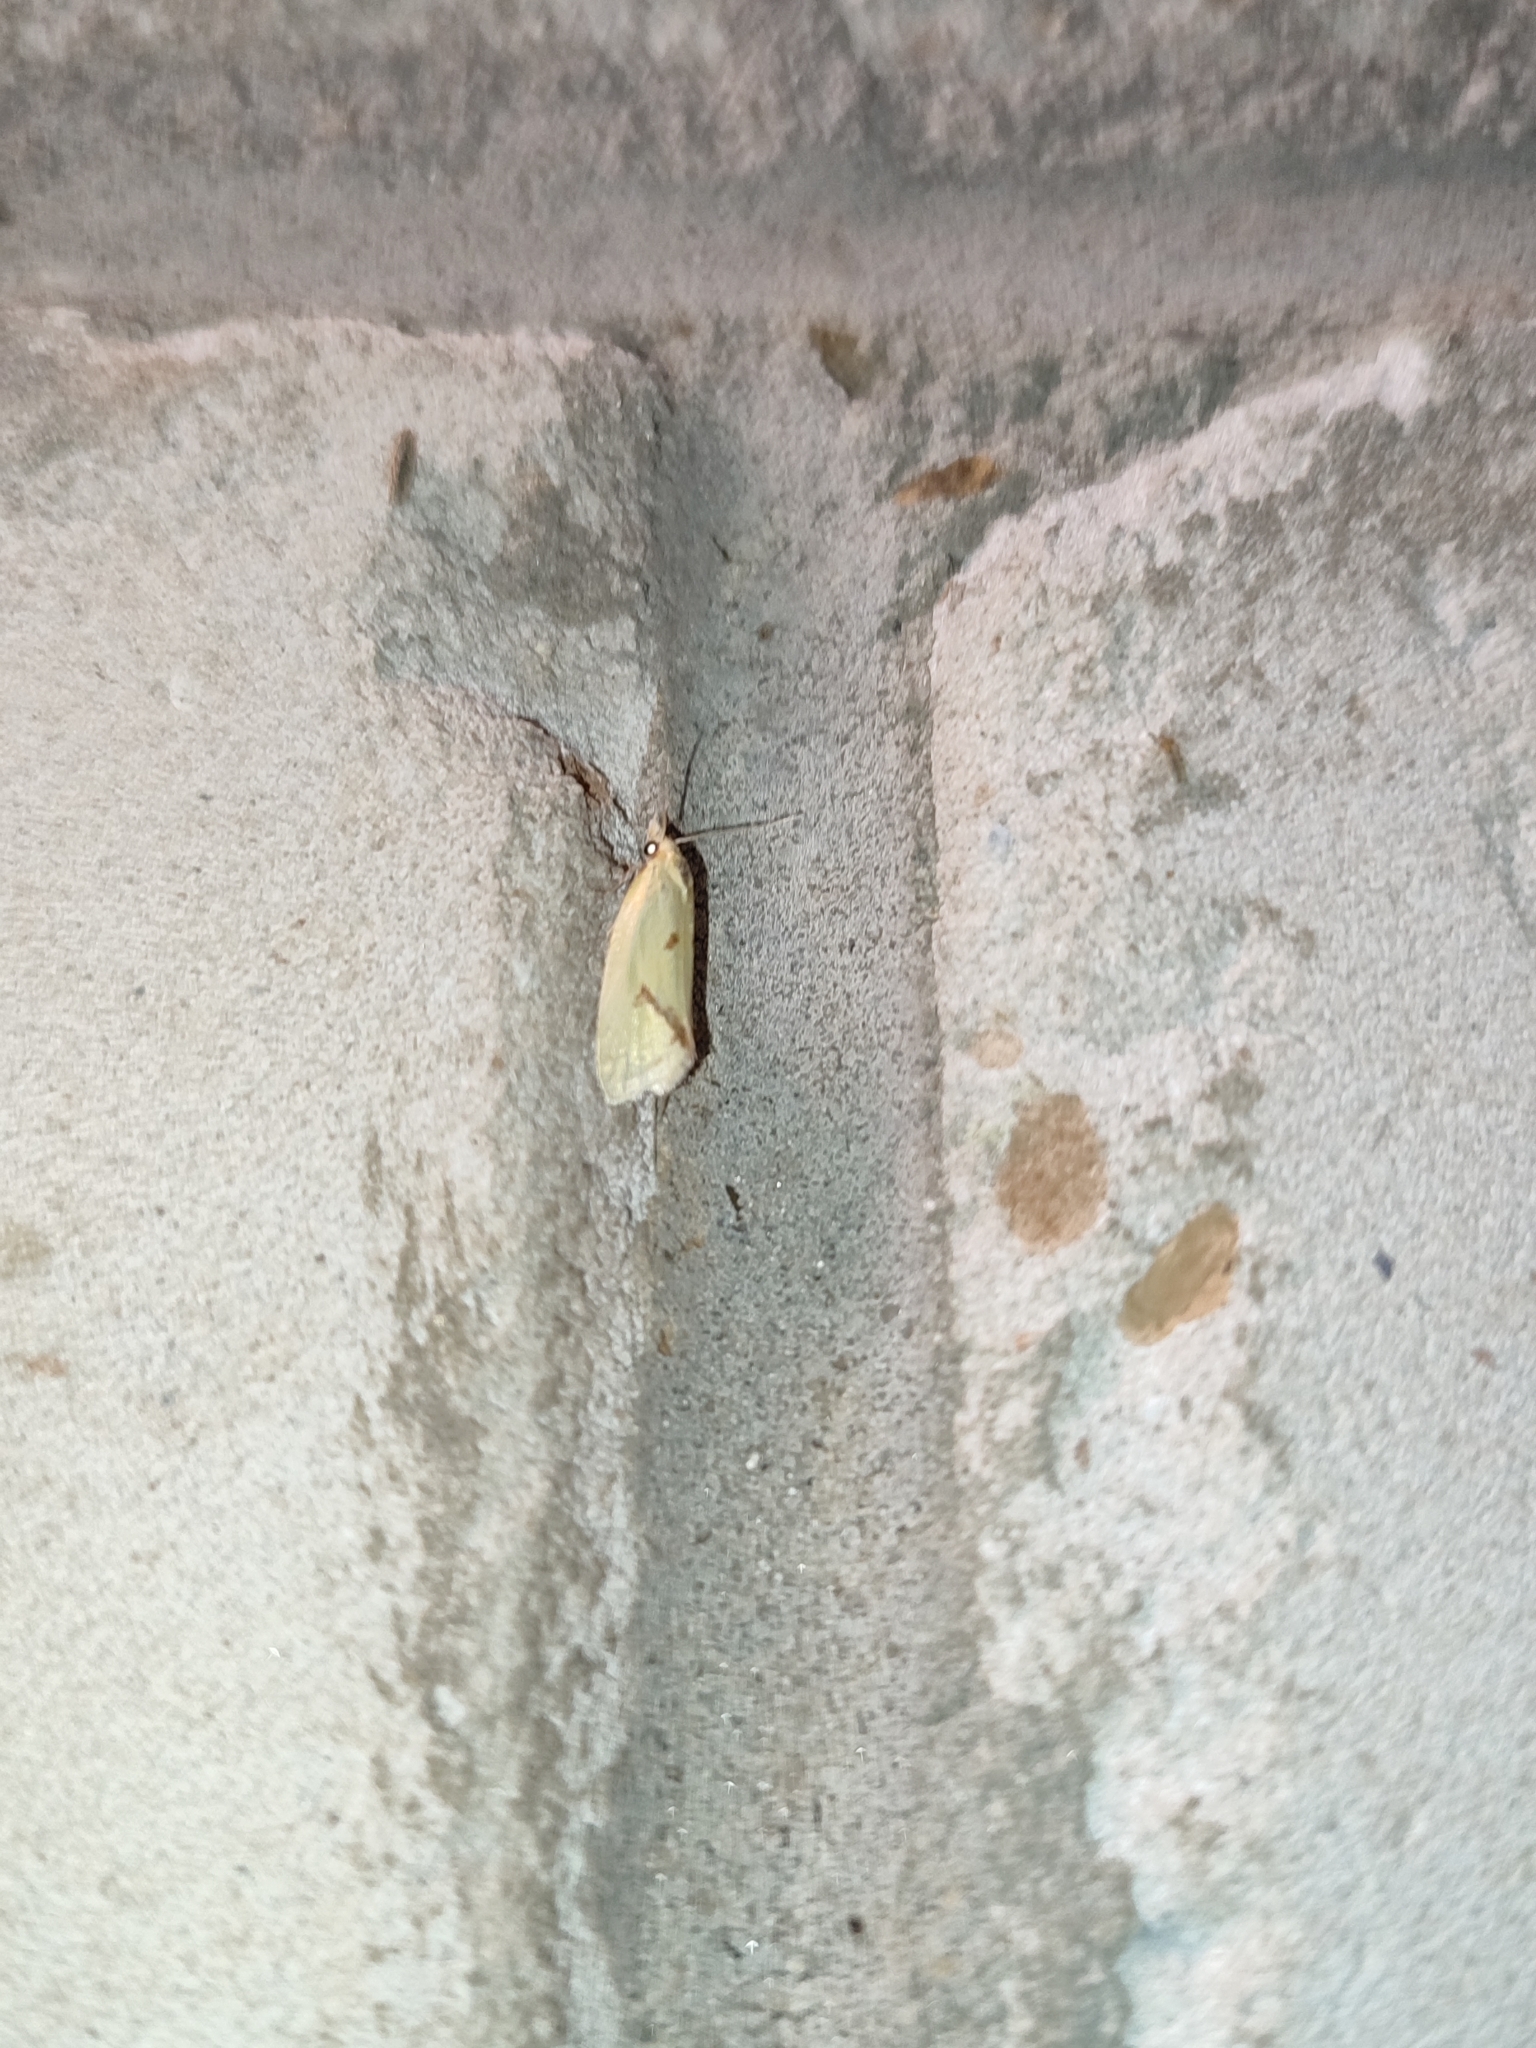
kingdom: Animalia
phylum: Arthropoda
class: Insecta
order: Lepidoptera
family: Tortricidae
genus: Agapeta
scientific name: Agapeta hamana
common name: Common yellow conch
